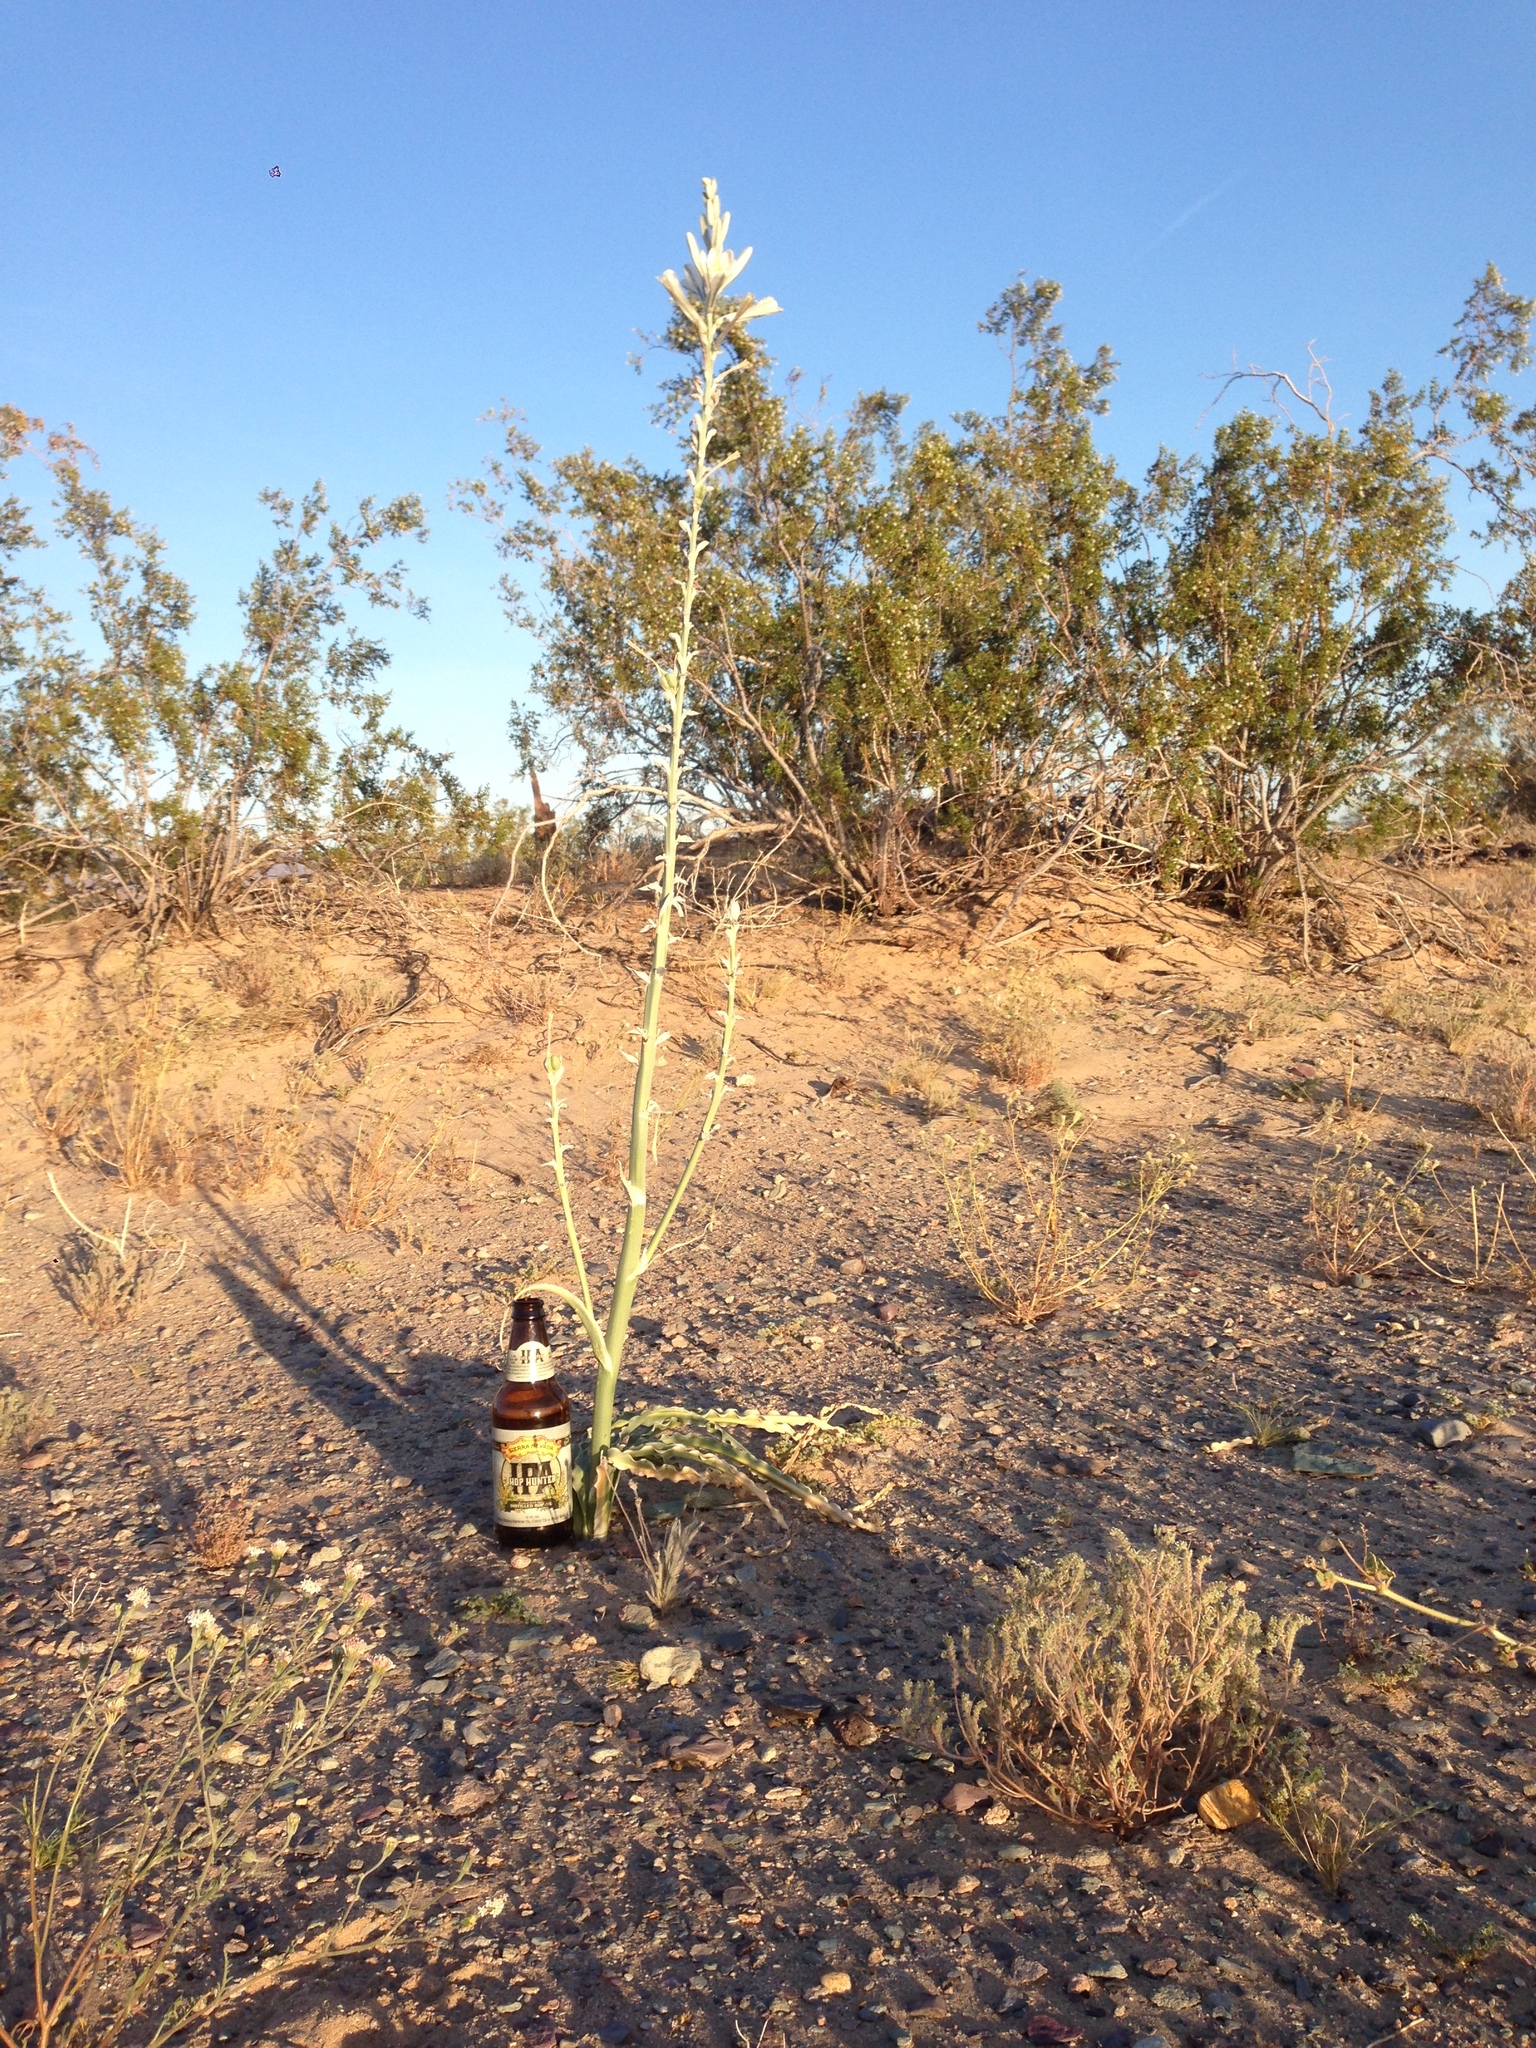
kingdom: Plantae
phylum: Tracheophyta
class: Liliopsida
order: Asparagales
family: Asparagaceae
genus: Hesperocallis
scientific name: Hesperocallis undulata
